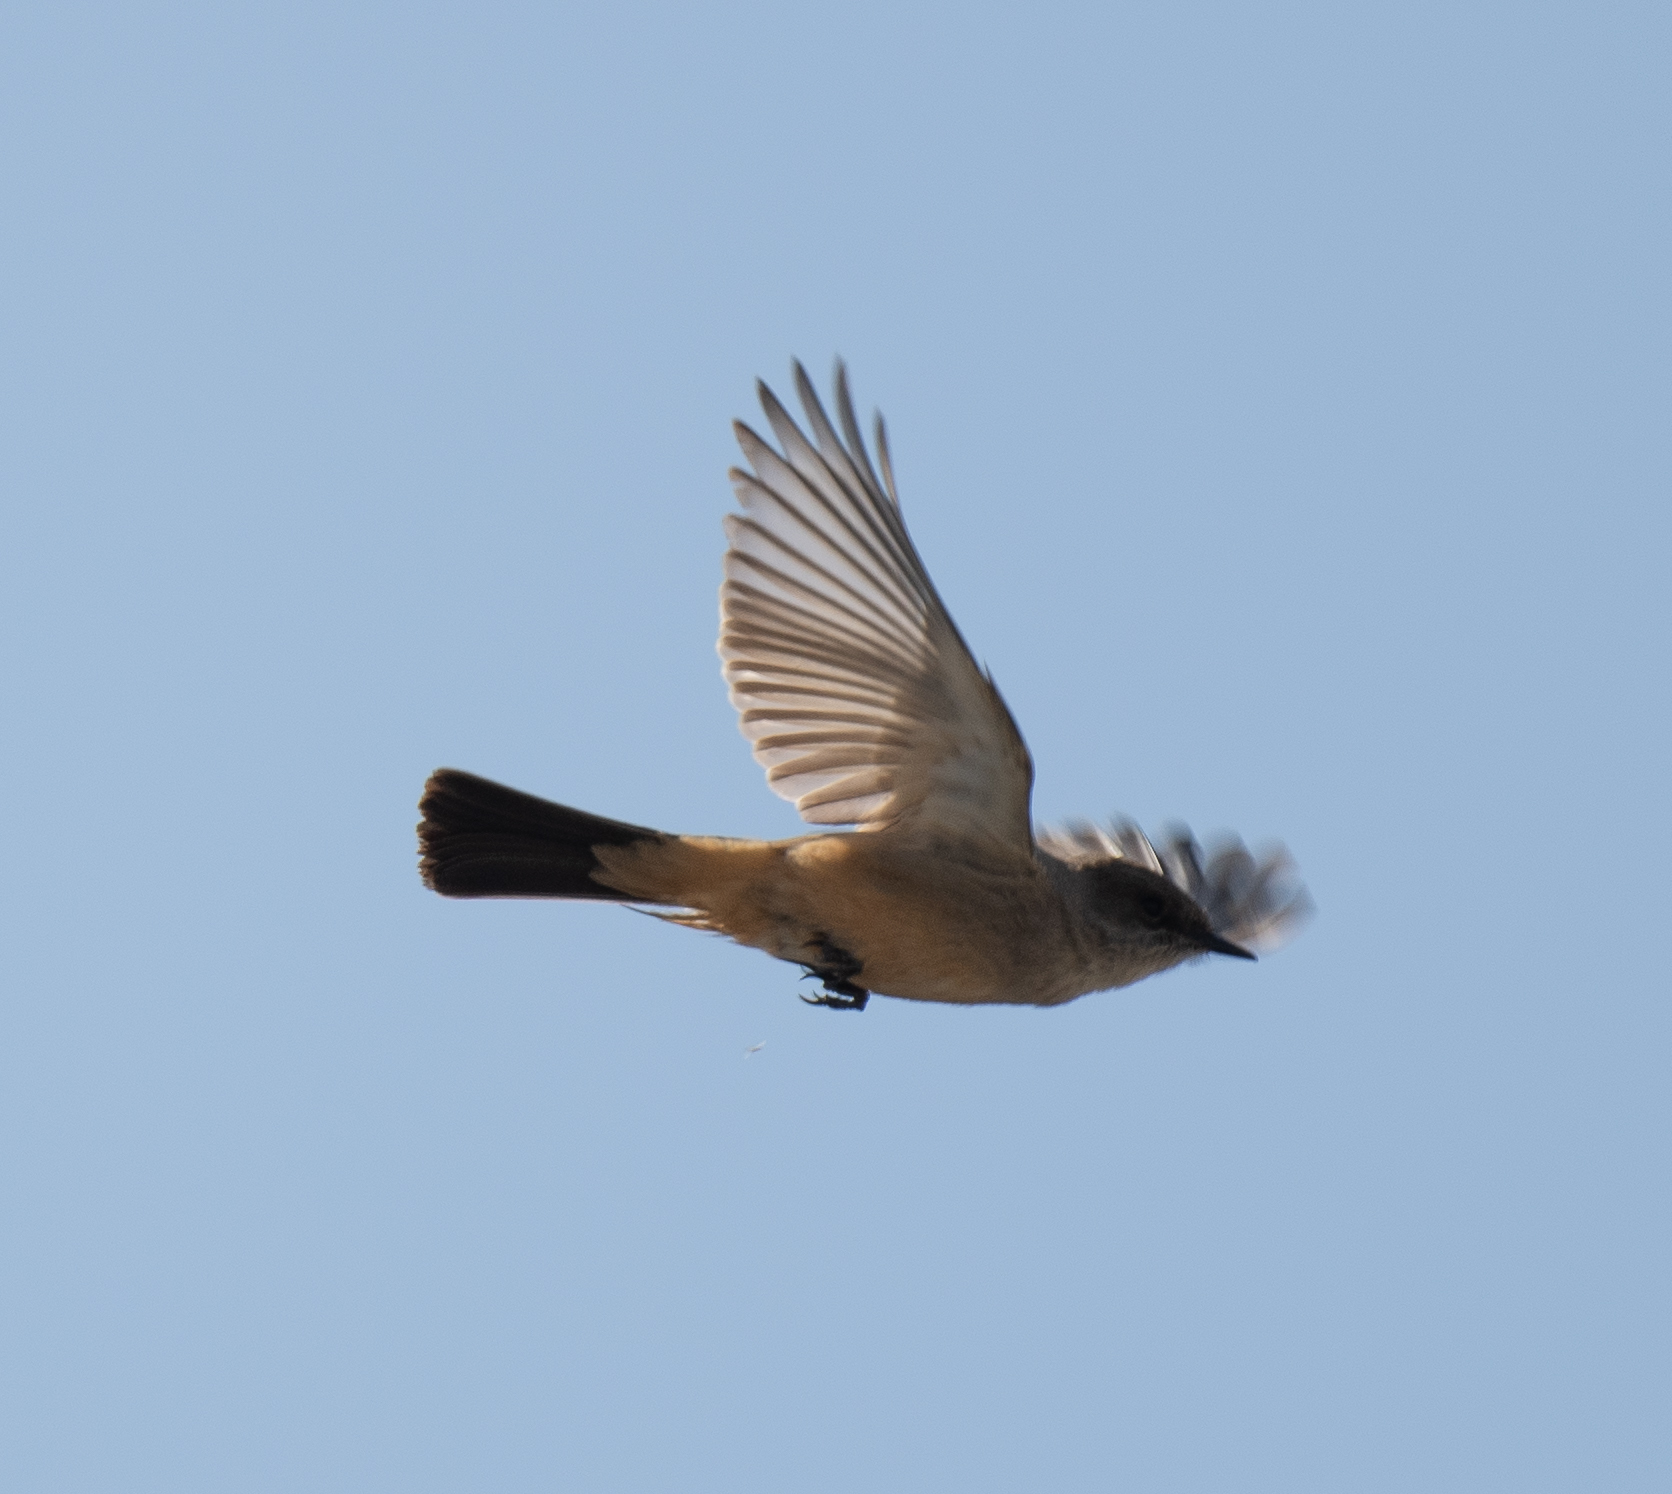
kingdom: Animalia
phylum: Chordata
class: Aves
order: Passeriformes
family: Tyrannidae
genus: Sayornis
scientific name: Sayornis saya
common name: Say's phoebe
